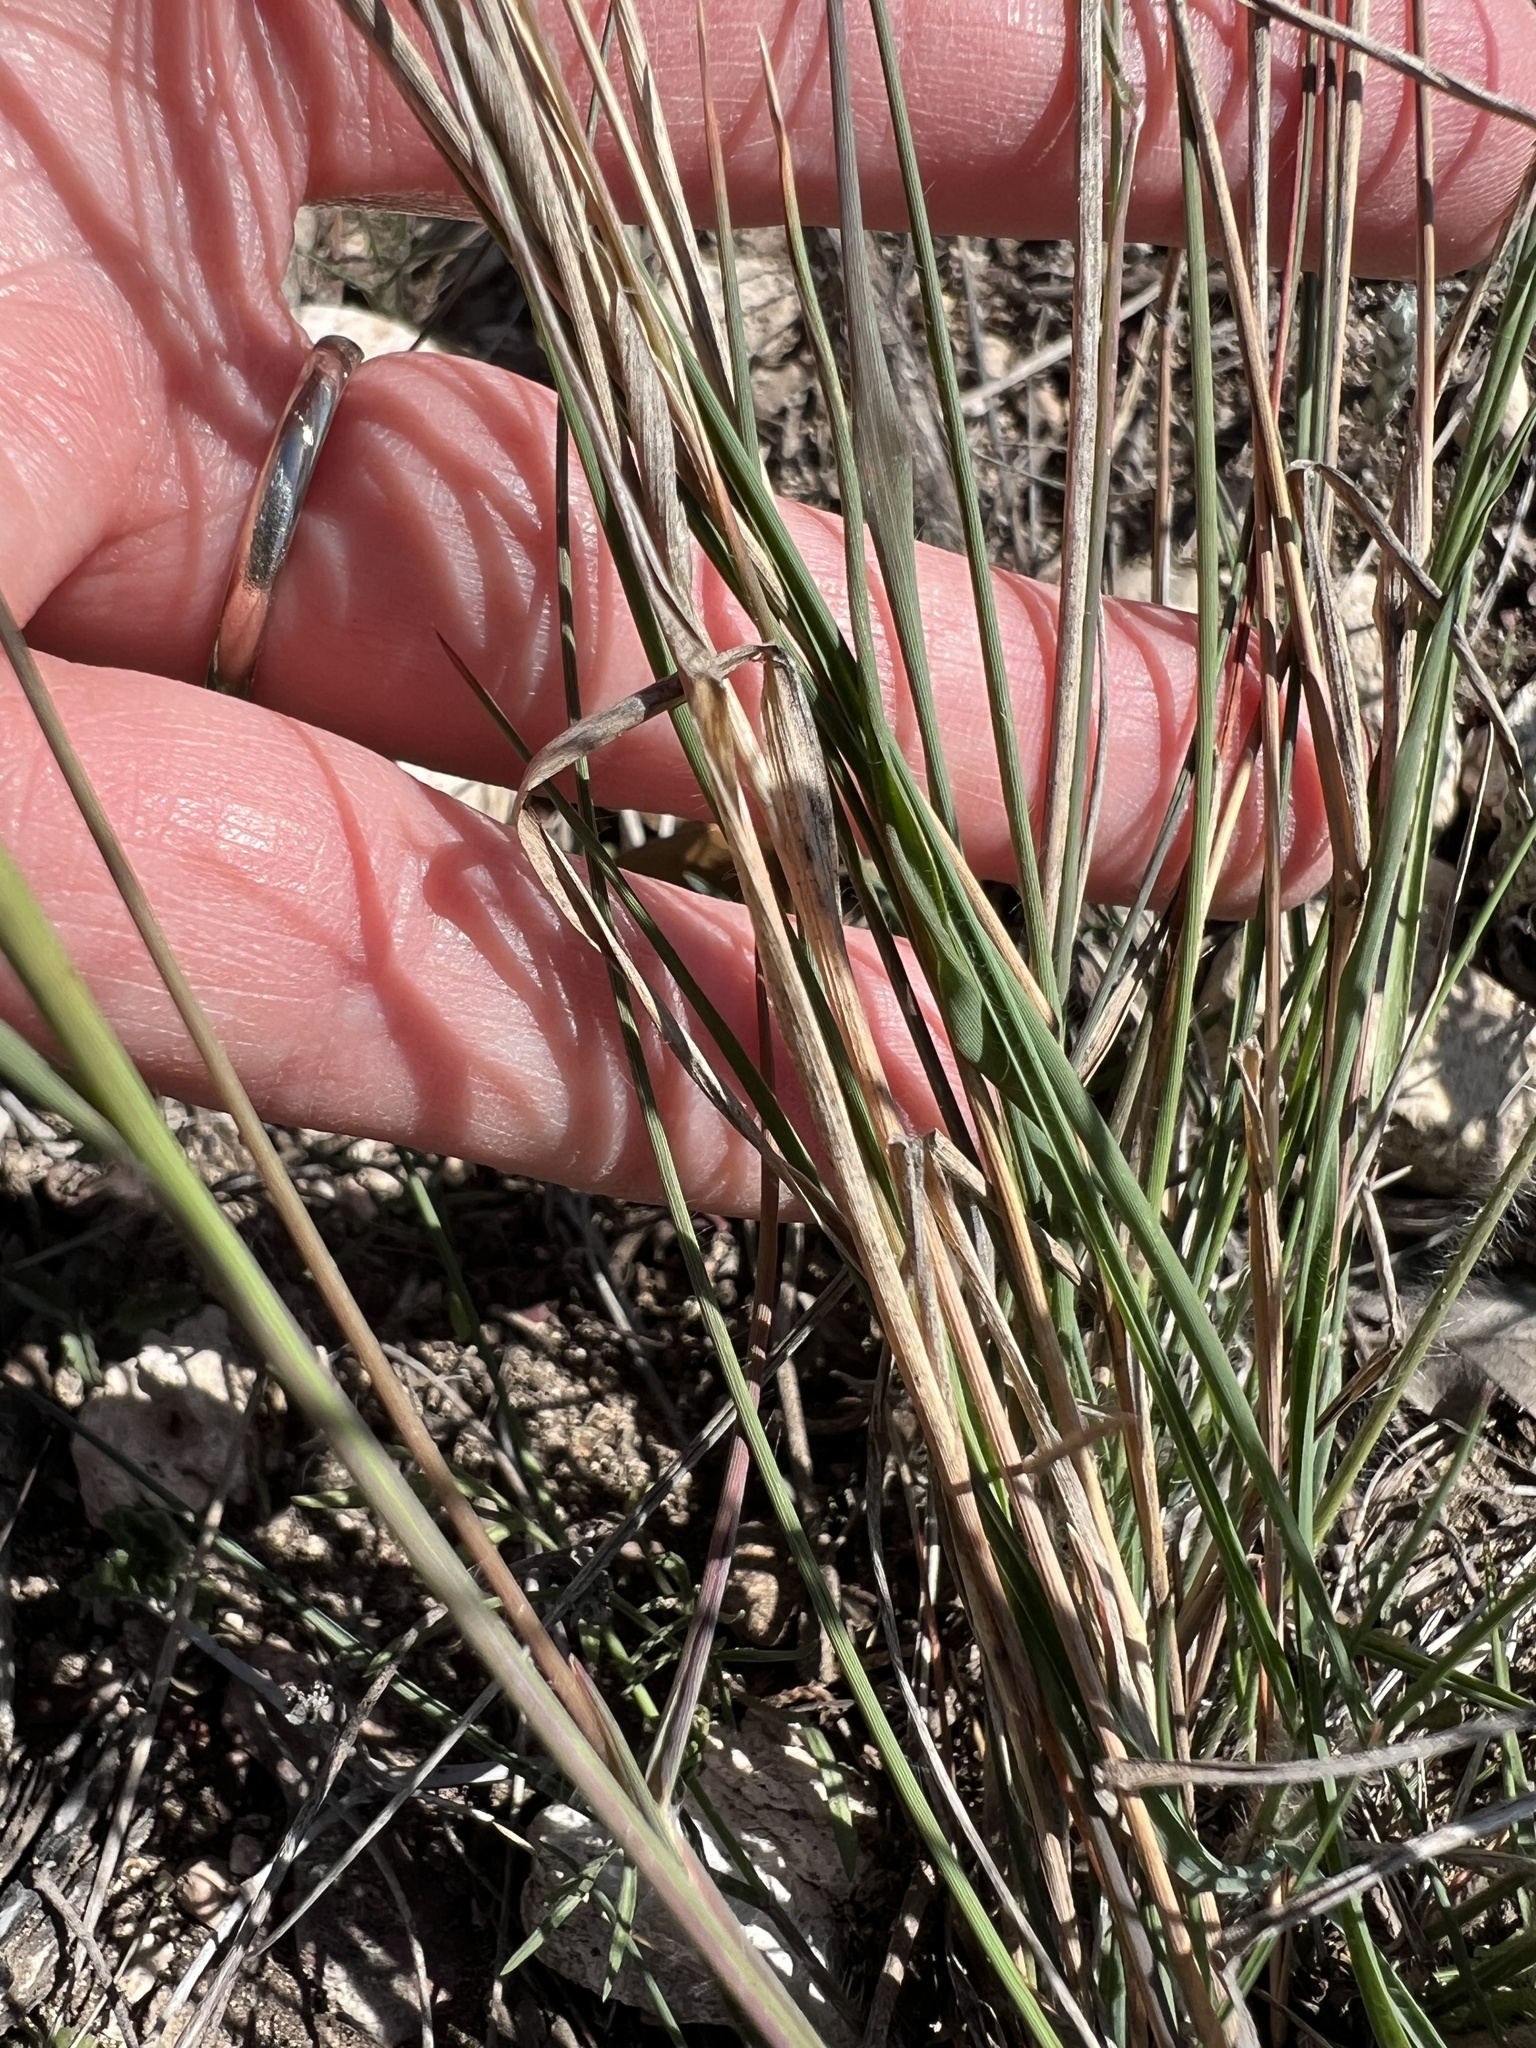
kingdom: Plantae
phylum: Tracheophyta
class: Liliopsida
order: Poales
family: Poaceae
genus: Tridentopsis
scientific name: Tridentopsis mutica
